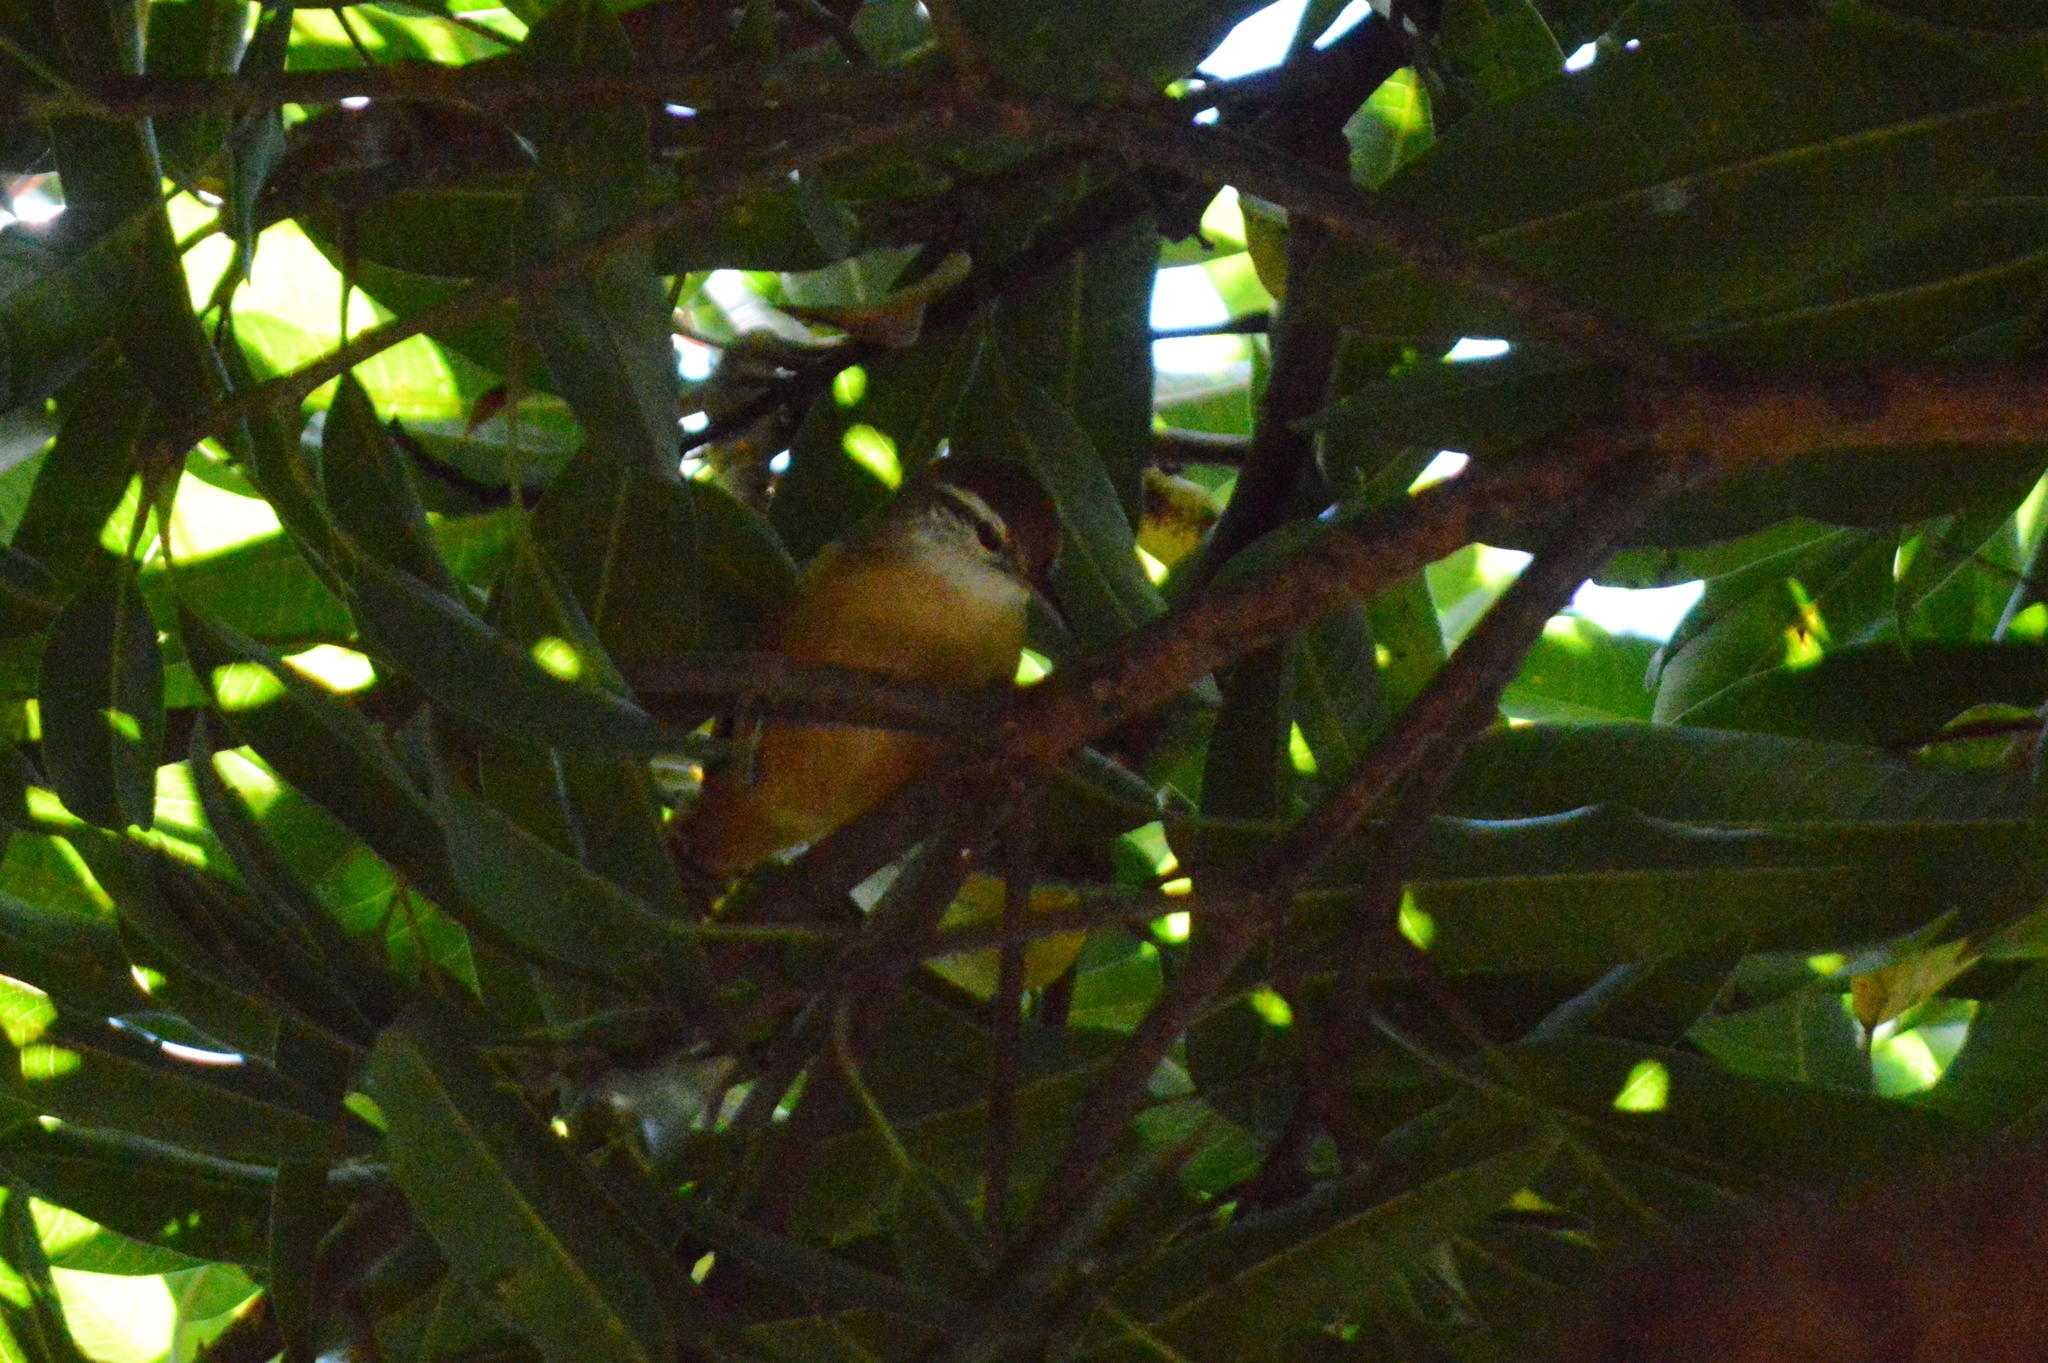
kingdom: Animalia
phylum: Chordata
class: Aves
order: Passeriformes
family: Troglodytidae
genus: Cantorchilus
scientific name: Cantorchilus leucotis
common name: Buff-breasted wren
